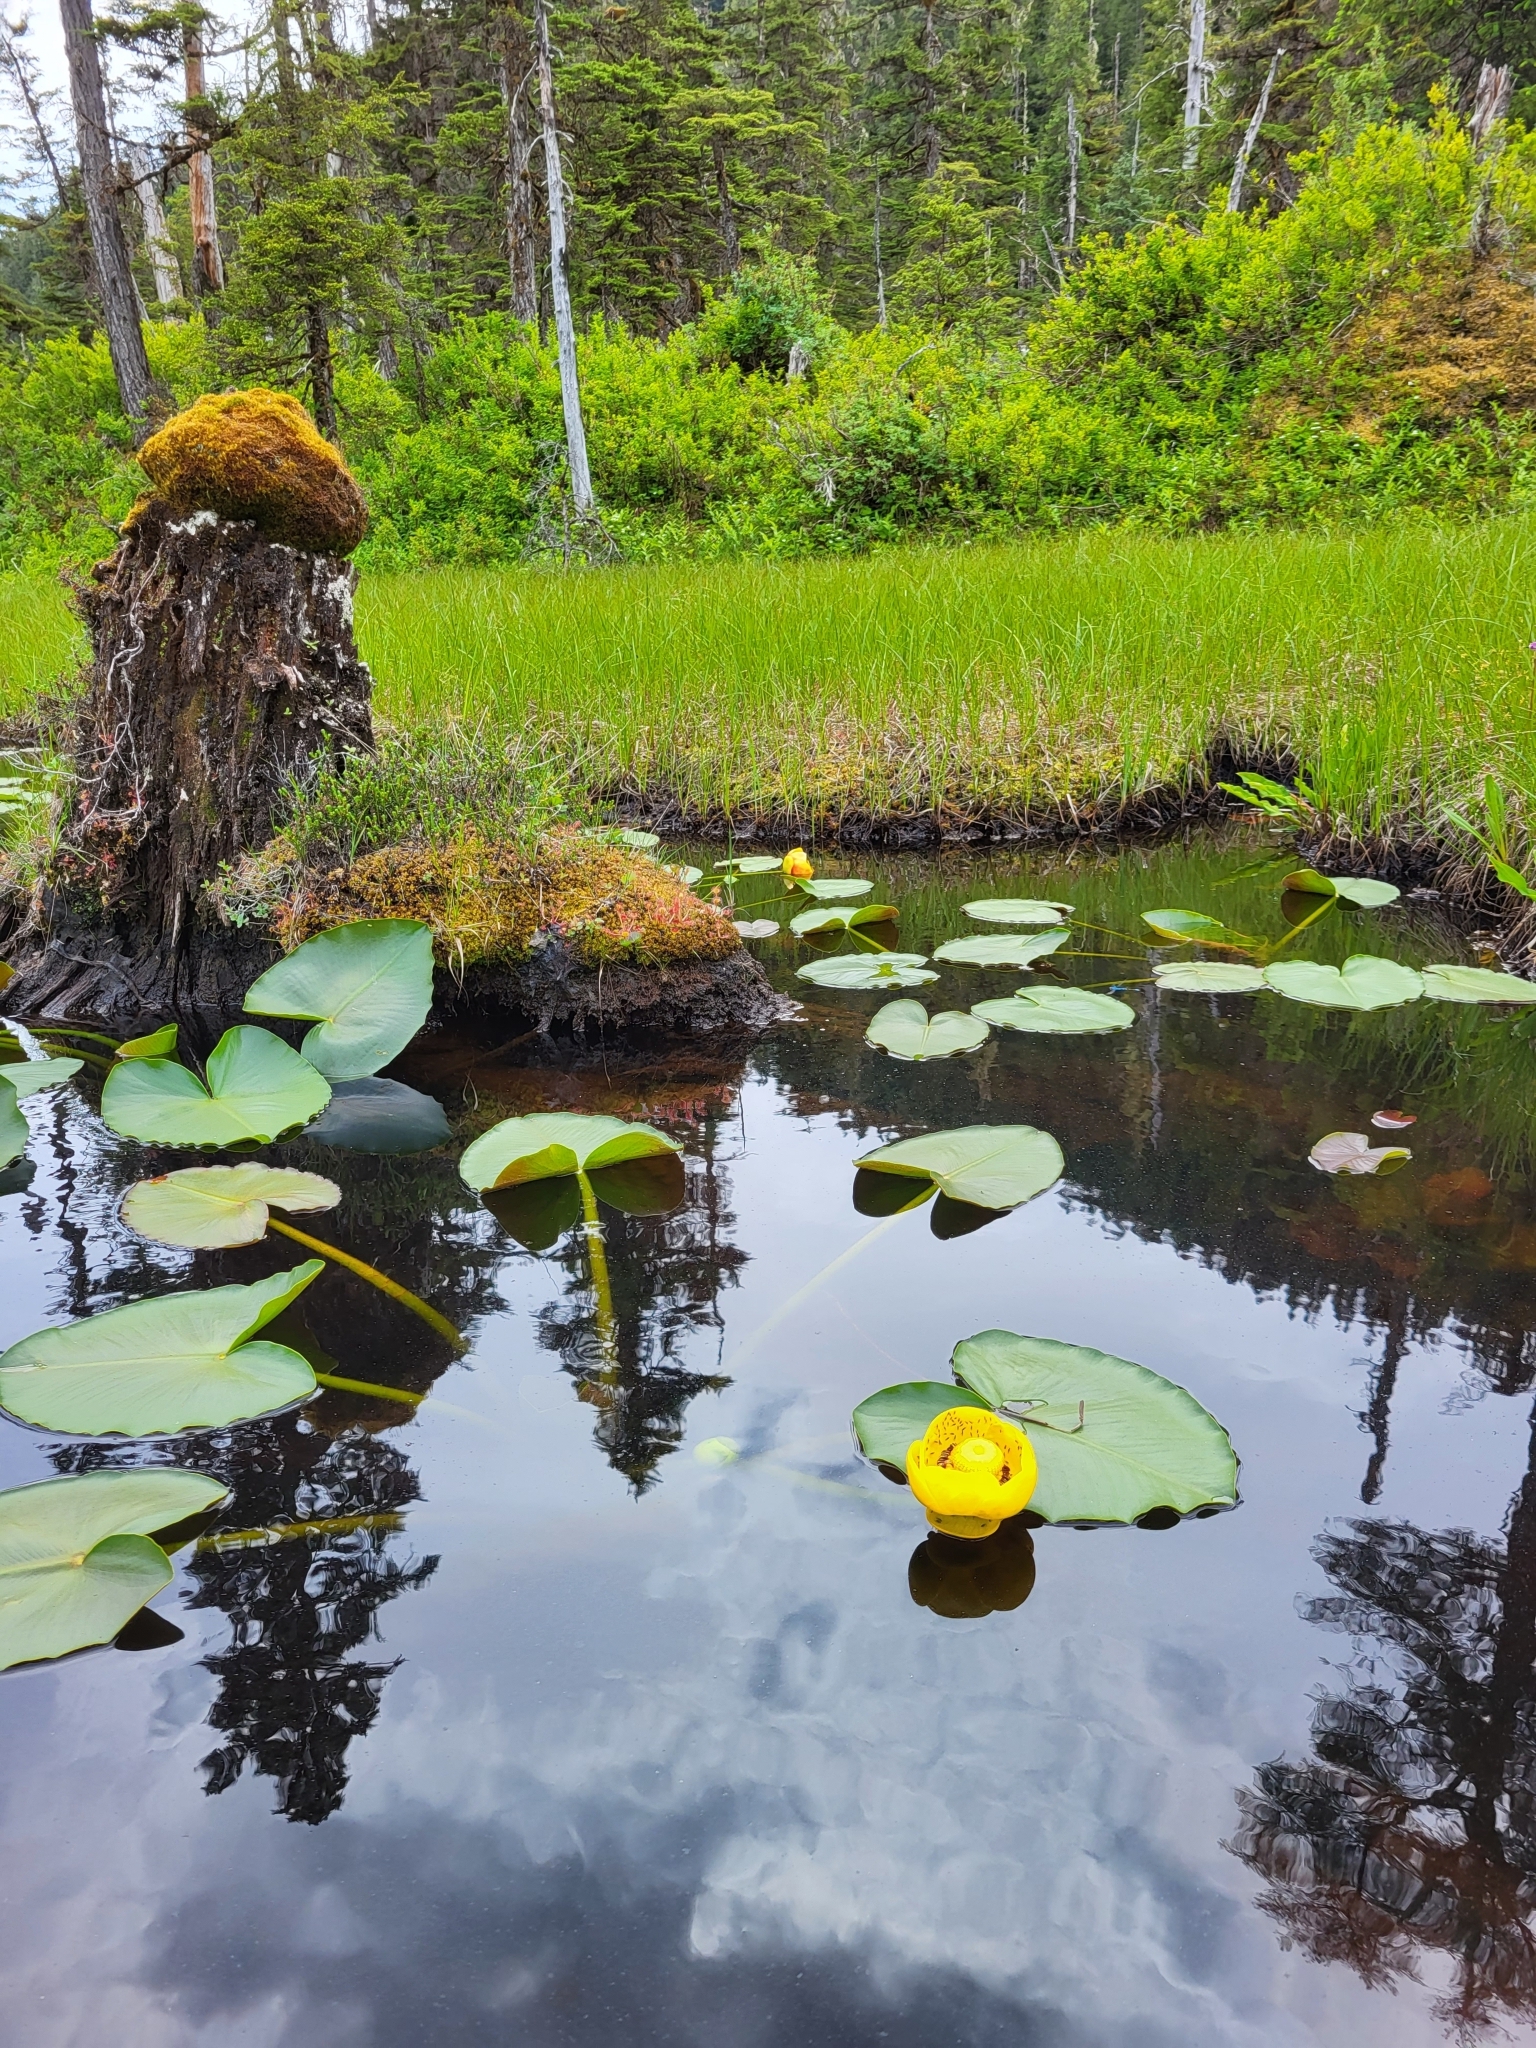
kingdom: Plantae
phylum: Tracheophyta
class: Magnoliopsida
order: Nymphaeales
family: Nymphaeaceae
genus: Nuphar
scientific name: Nuphar polysepala
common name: Rocky mountain cow-lily
